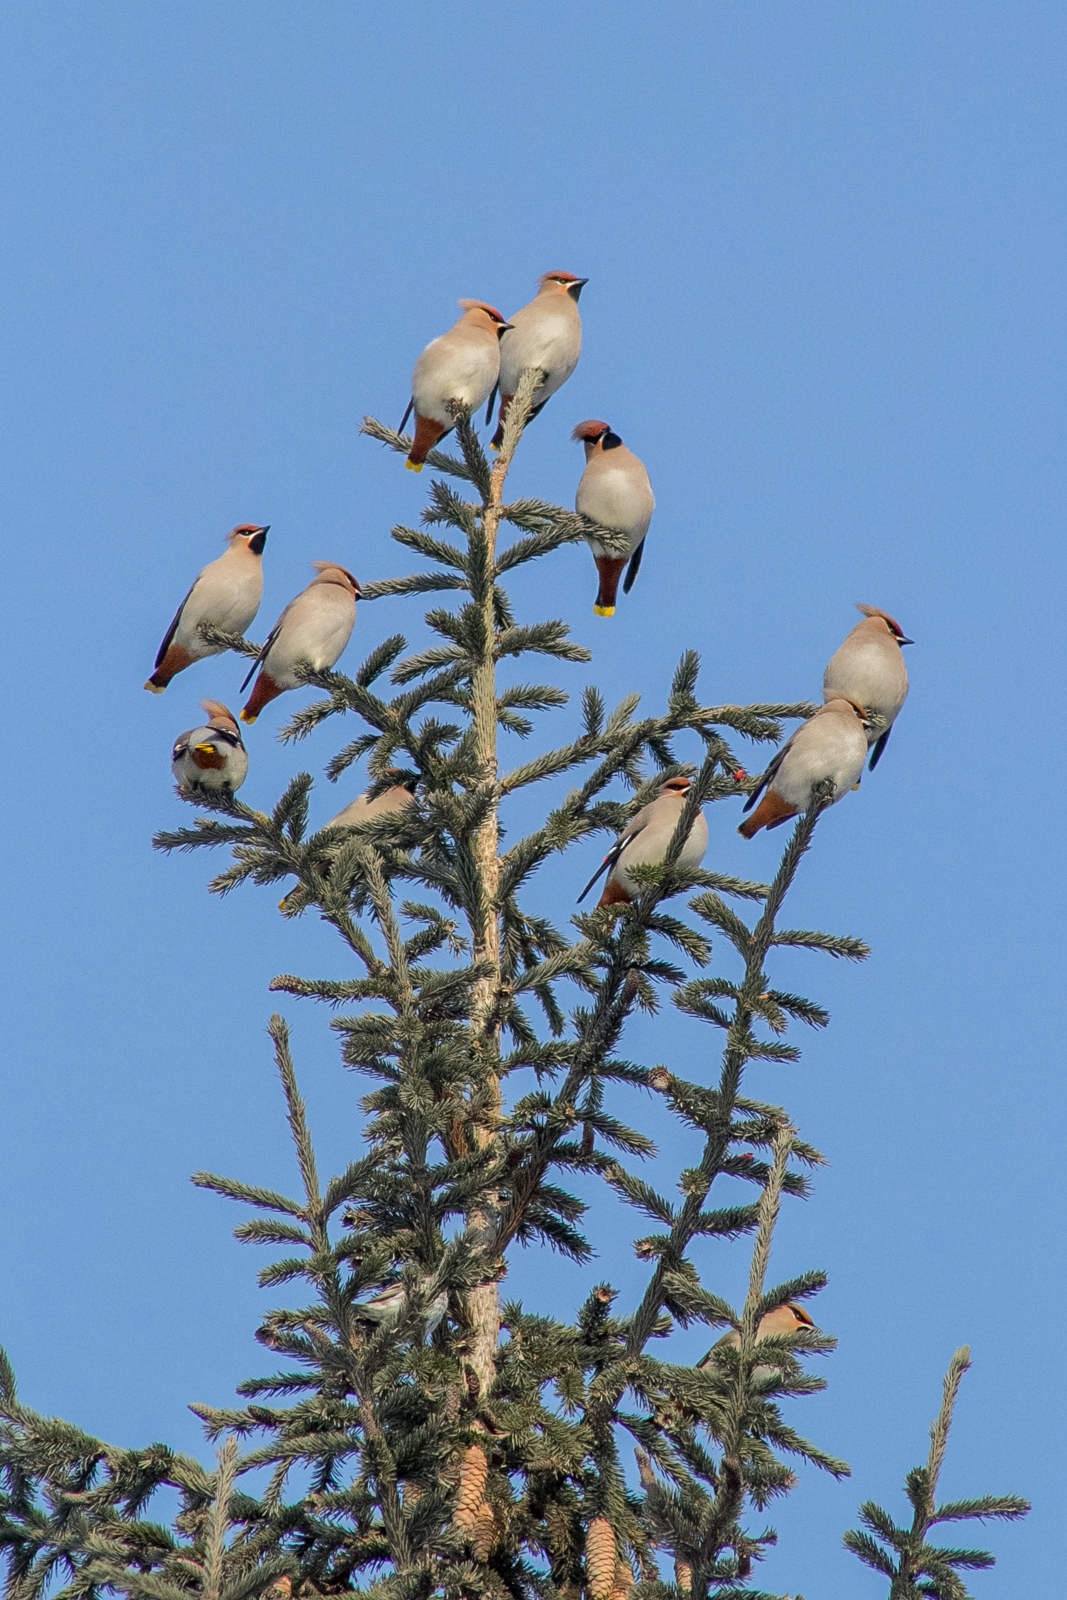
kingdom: Animalia
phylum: Chordata
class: Aves
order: Passeriformes
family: Bombycillidae
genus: Bombycilla
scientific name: Bombycilla garrulus
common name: Bohemian waxwing
